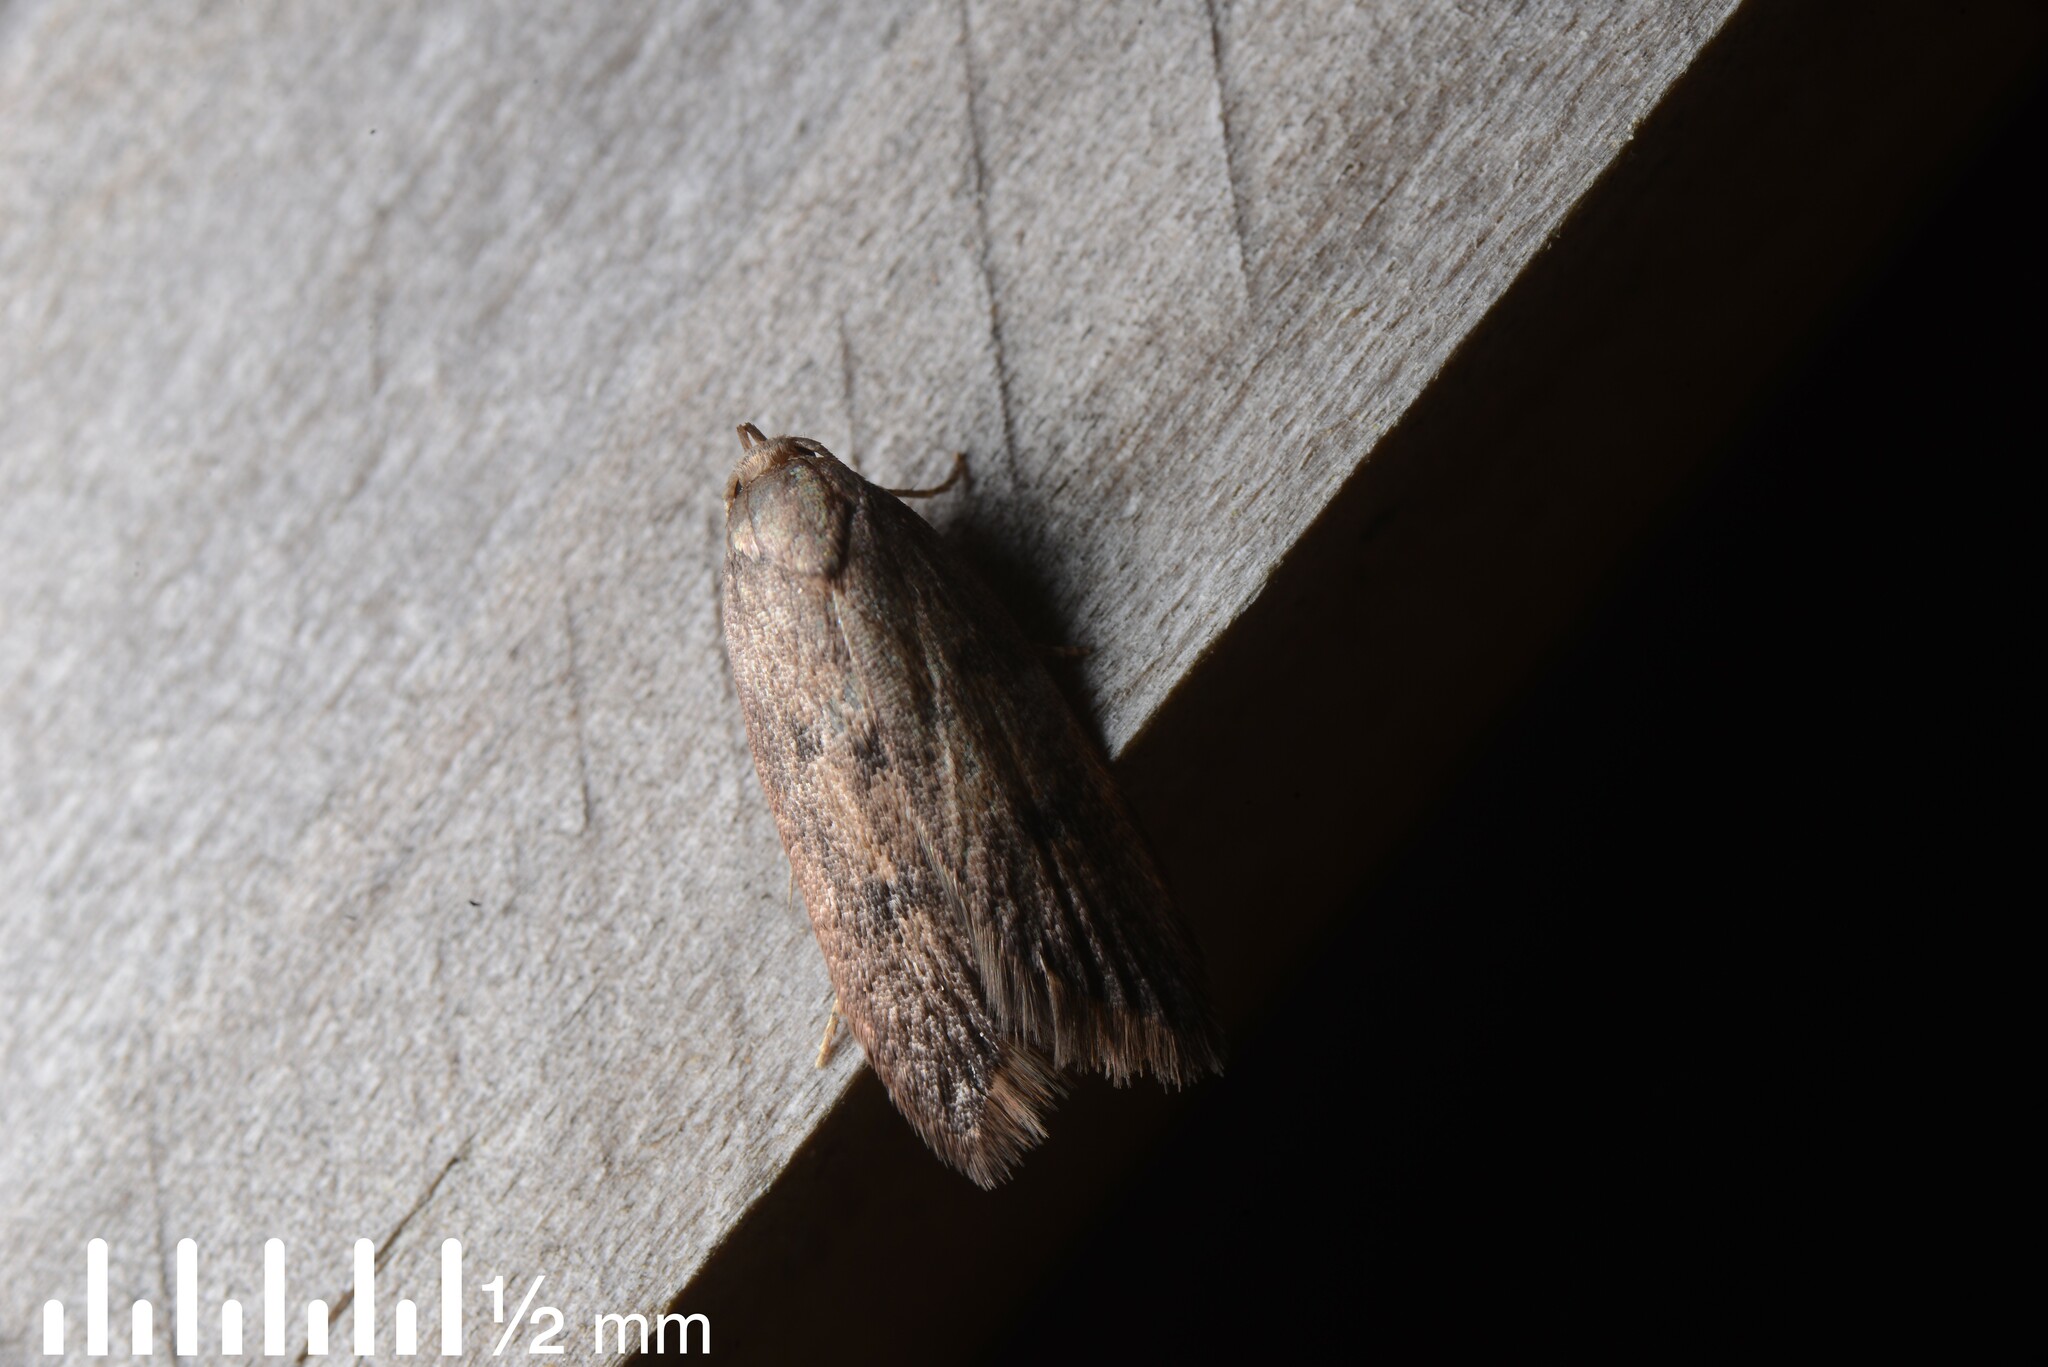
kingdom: Animalia
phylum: Arthropoda
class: Insecta
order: Lepidoptera
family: Oecophoridae
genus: Tachystola
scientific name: Tachystola acroxantha
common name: Ruddy streak
